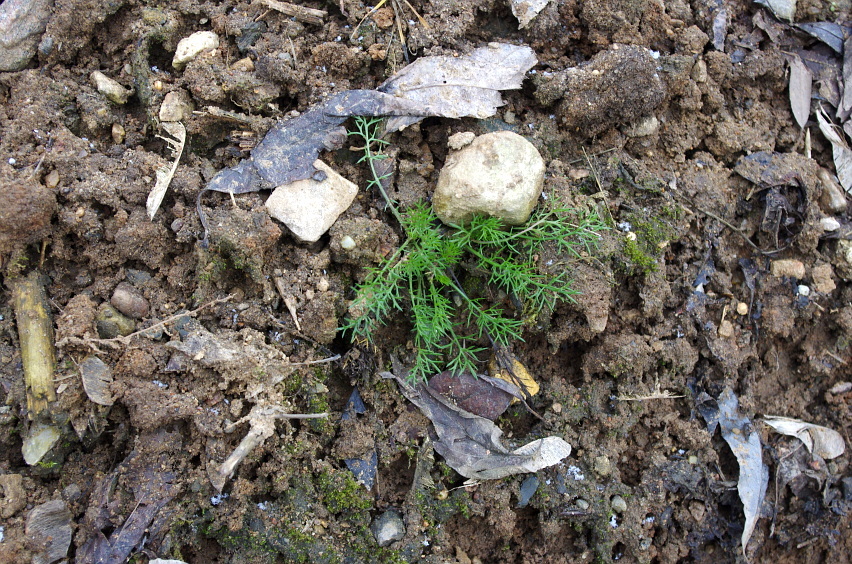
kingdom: Plantae
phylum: Tracheophyta
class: Magnoliopsida
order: Asterales
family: Asteraceae
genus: Tripleurospermum
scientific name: Tripleurospermum inodorum
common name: Scentless mayweed
